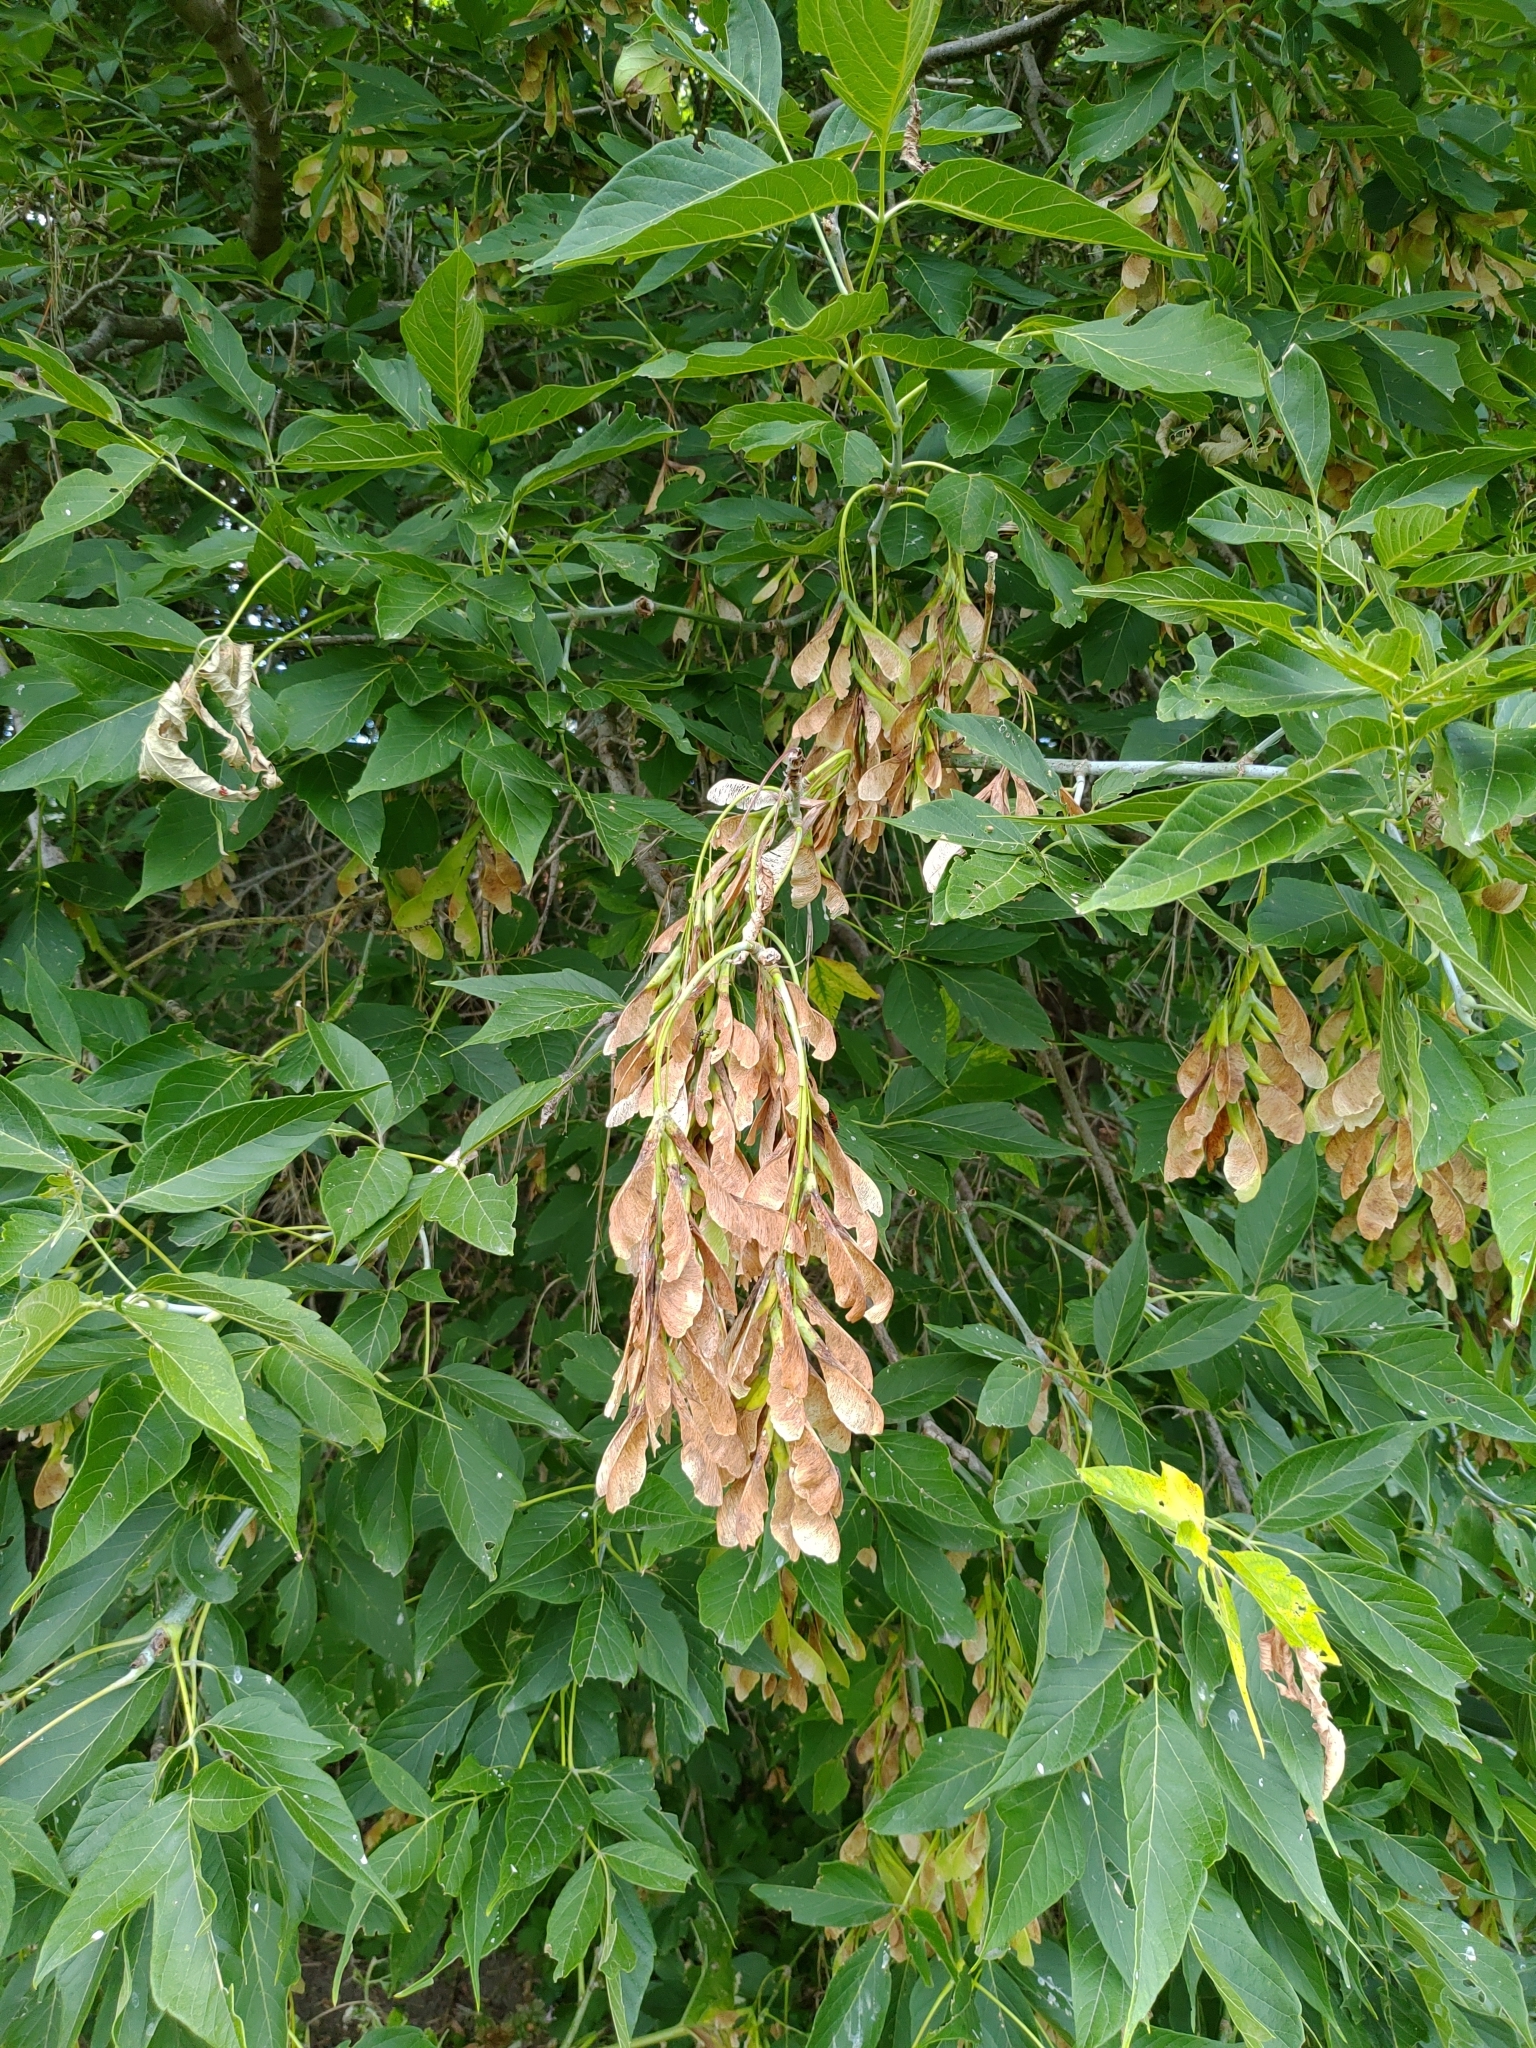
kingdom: Plantae
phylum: Tracheophyta
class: Magnoliopsida
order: Sapindales
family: Sapindaceae
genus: Acer
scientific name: Acer negundo
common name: Ashleaf maple
